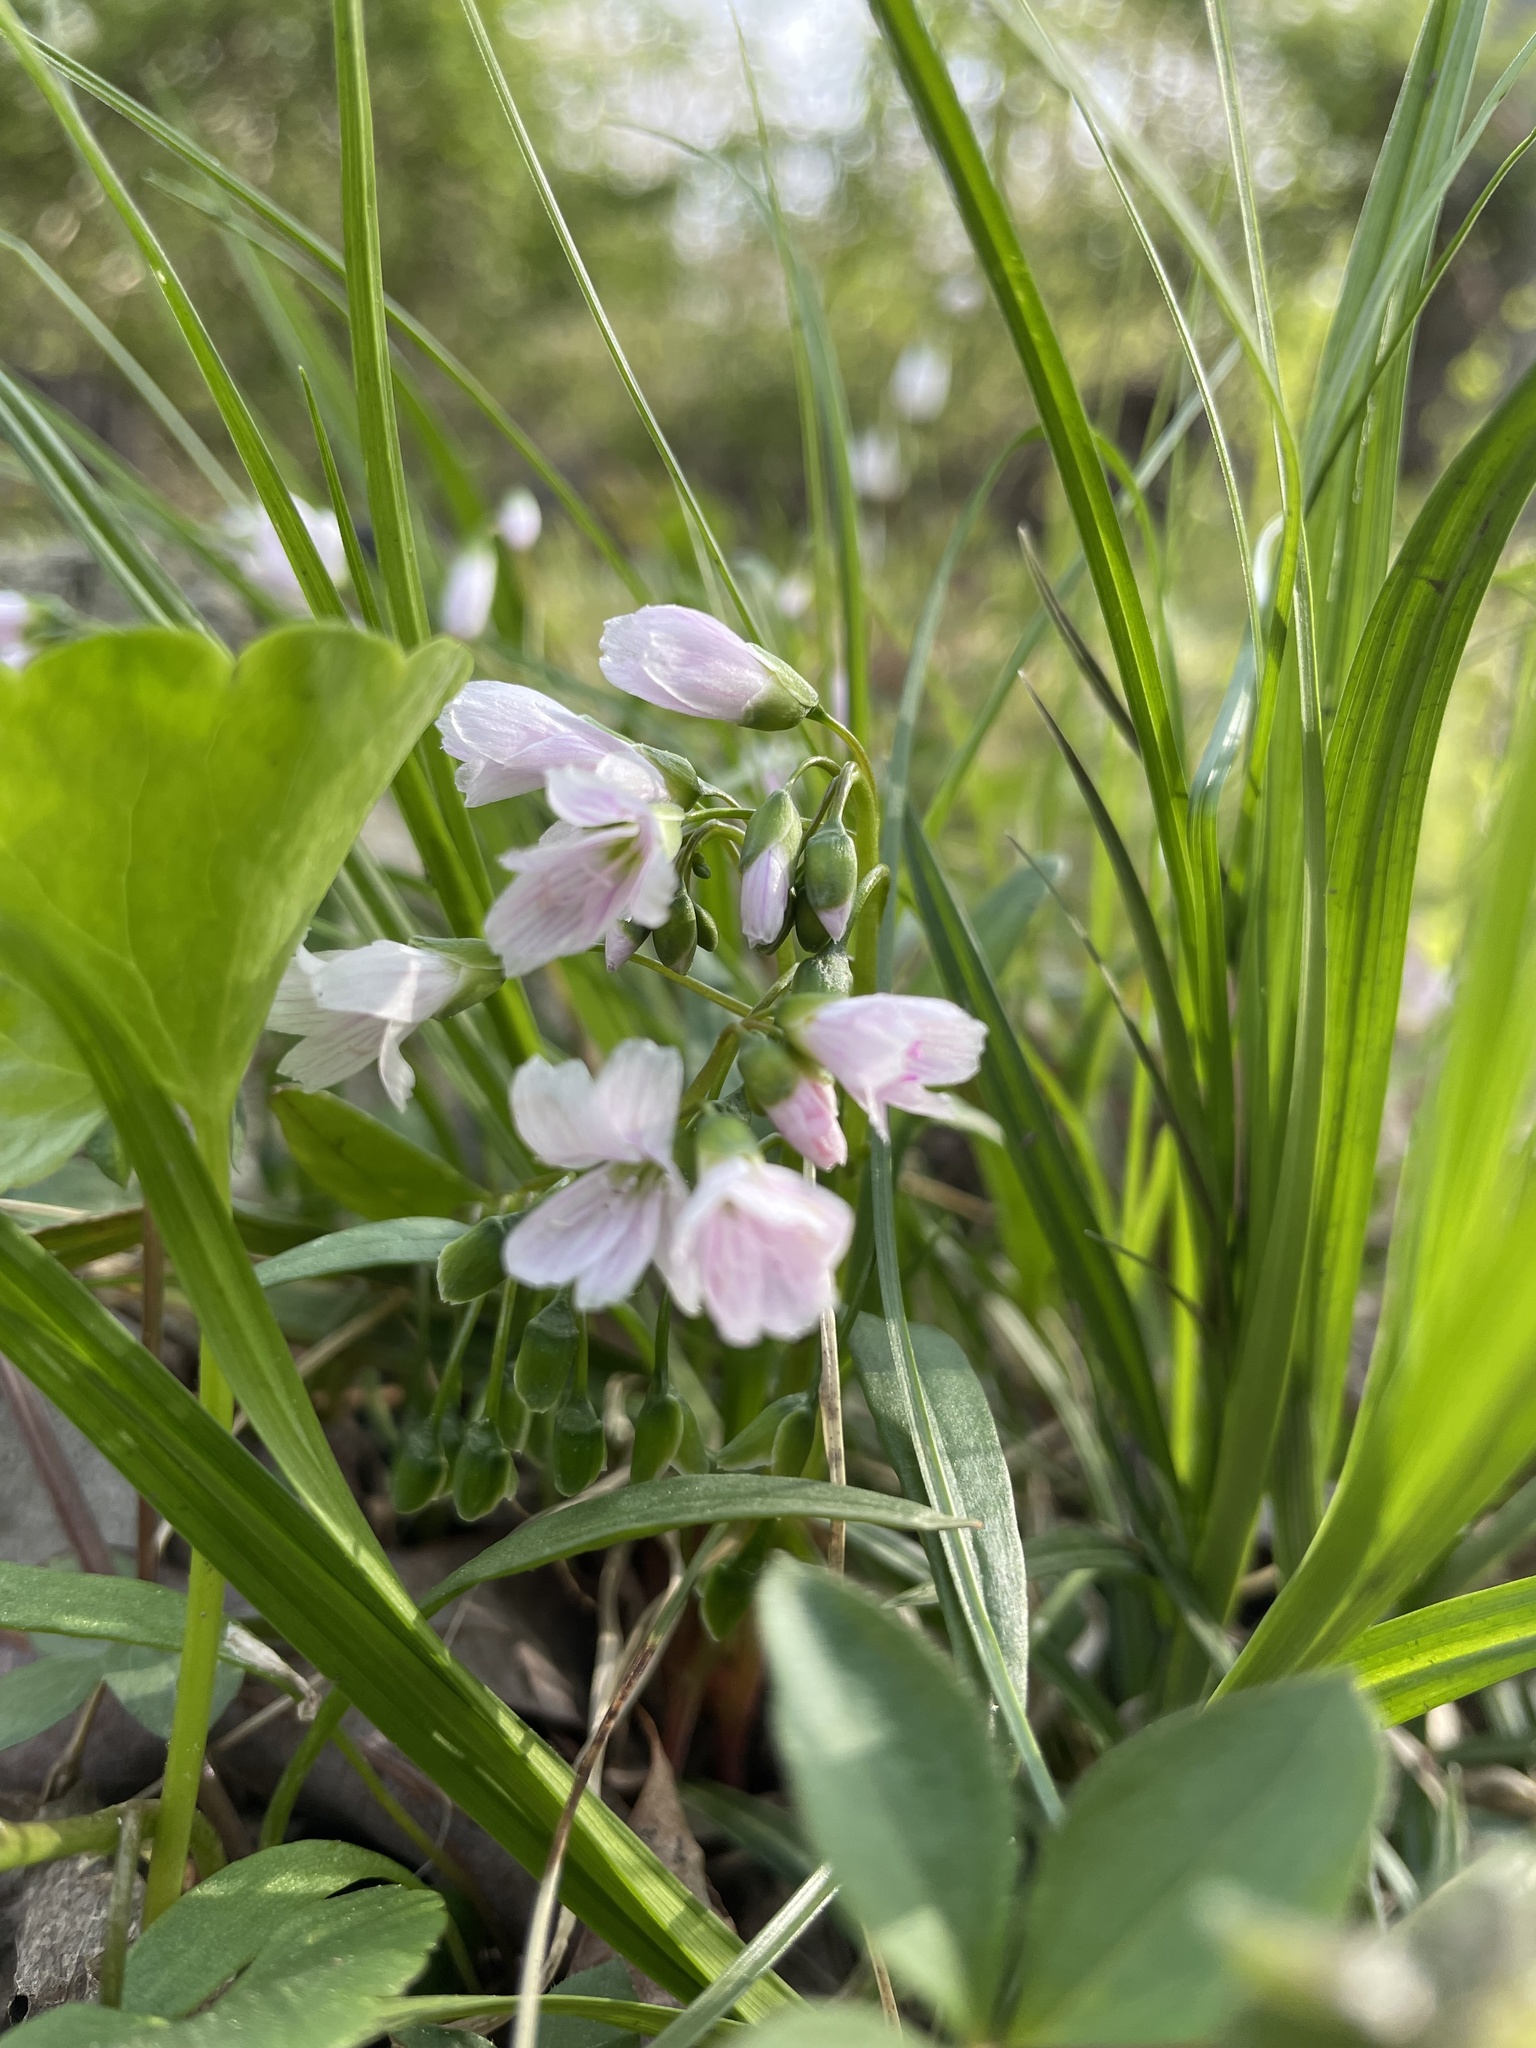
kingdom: Plantae
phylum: Tracheophyta
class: Magnoliopsida
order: Caryophyllales
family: Montiaceae
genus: Claytonia
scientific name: Claytonia virginica
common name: Virginia springbeauty
